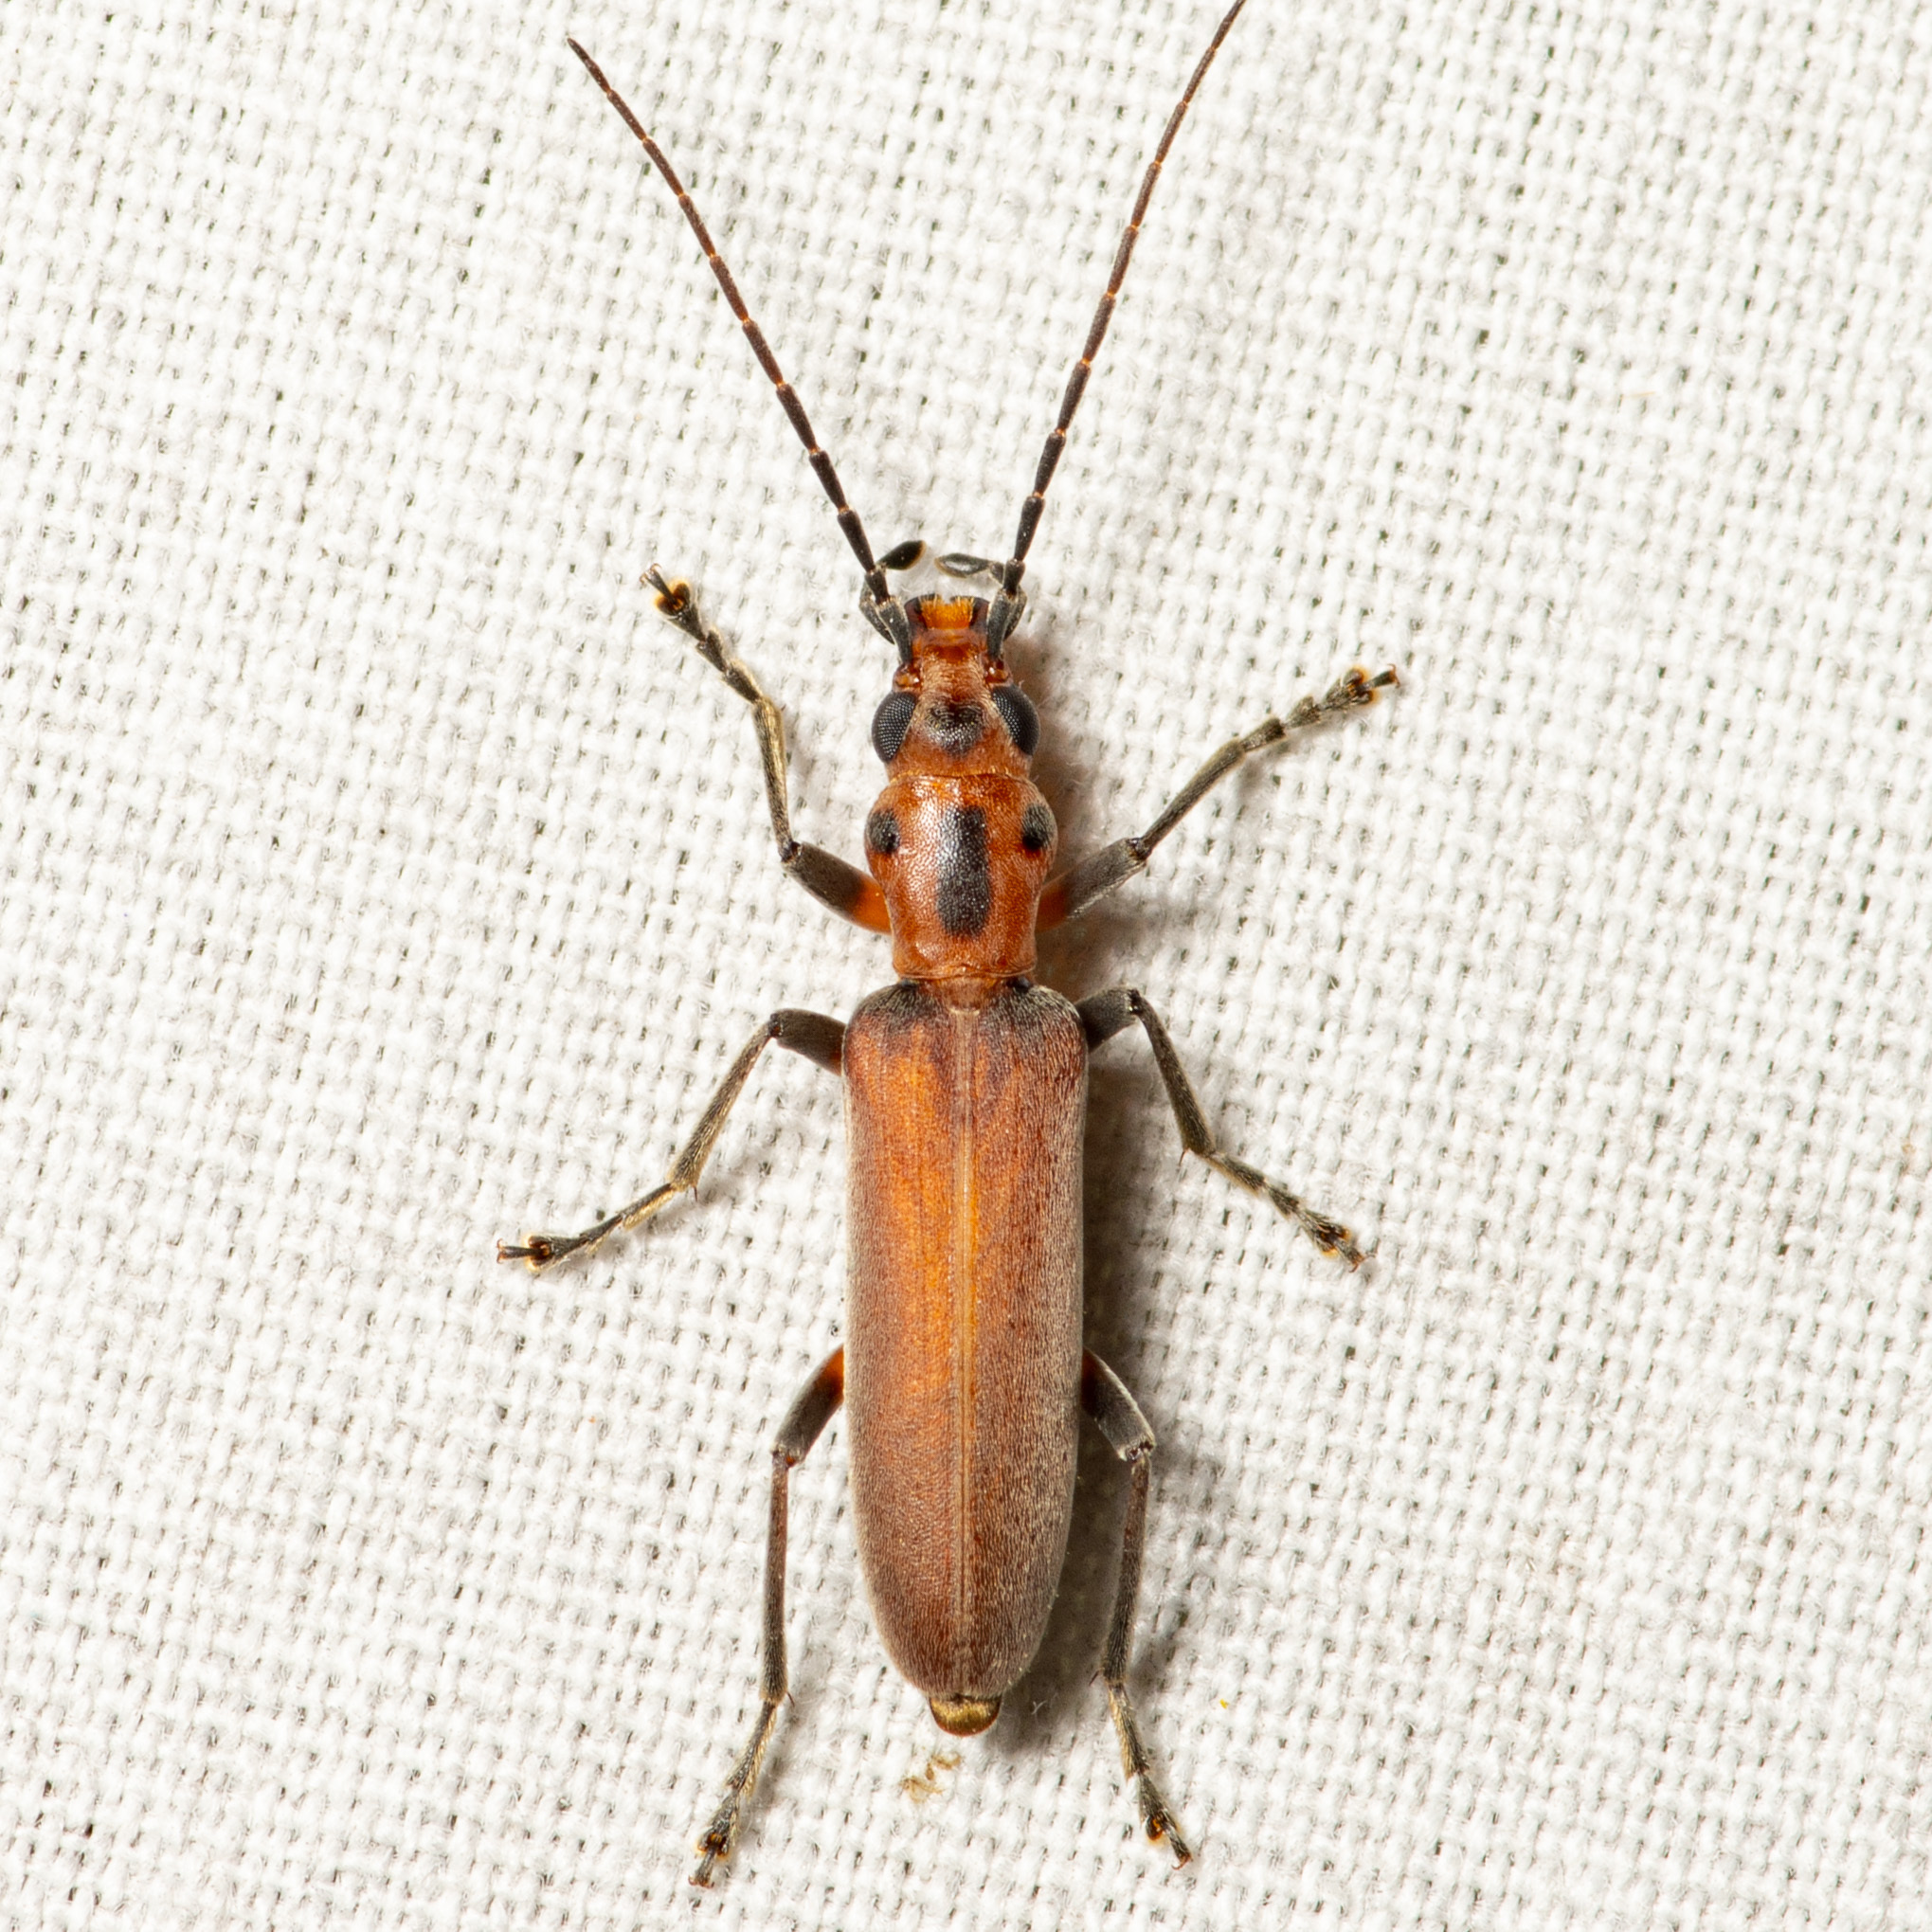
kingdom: Animalia
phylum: Arthropoda
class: Insecta
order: Coleoptera
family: Oedemeridae
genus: Oxacis
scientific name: Oxacis trimaculata
